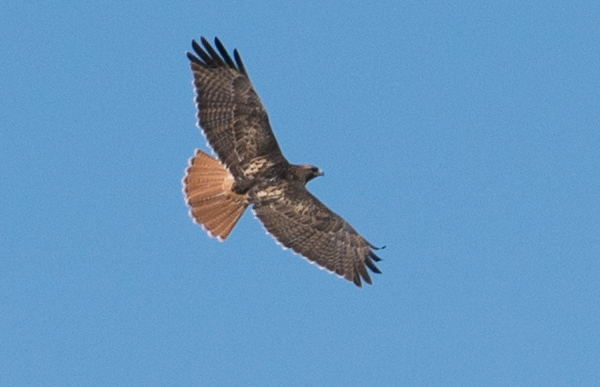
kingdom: Animalia
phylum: Chordata
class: Aves
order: Accipitriformes
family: Accipitridae
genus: Buteo
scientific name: Buteo jamaicensis
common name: Red-tailed hawk
